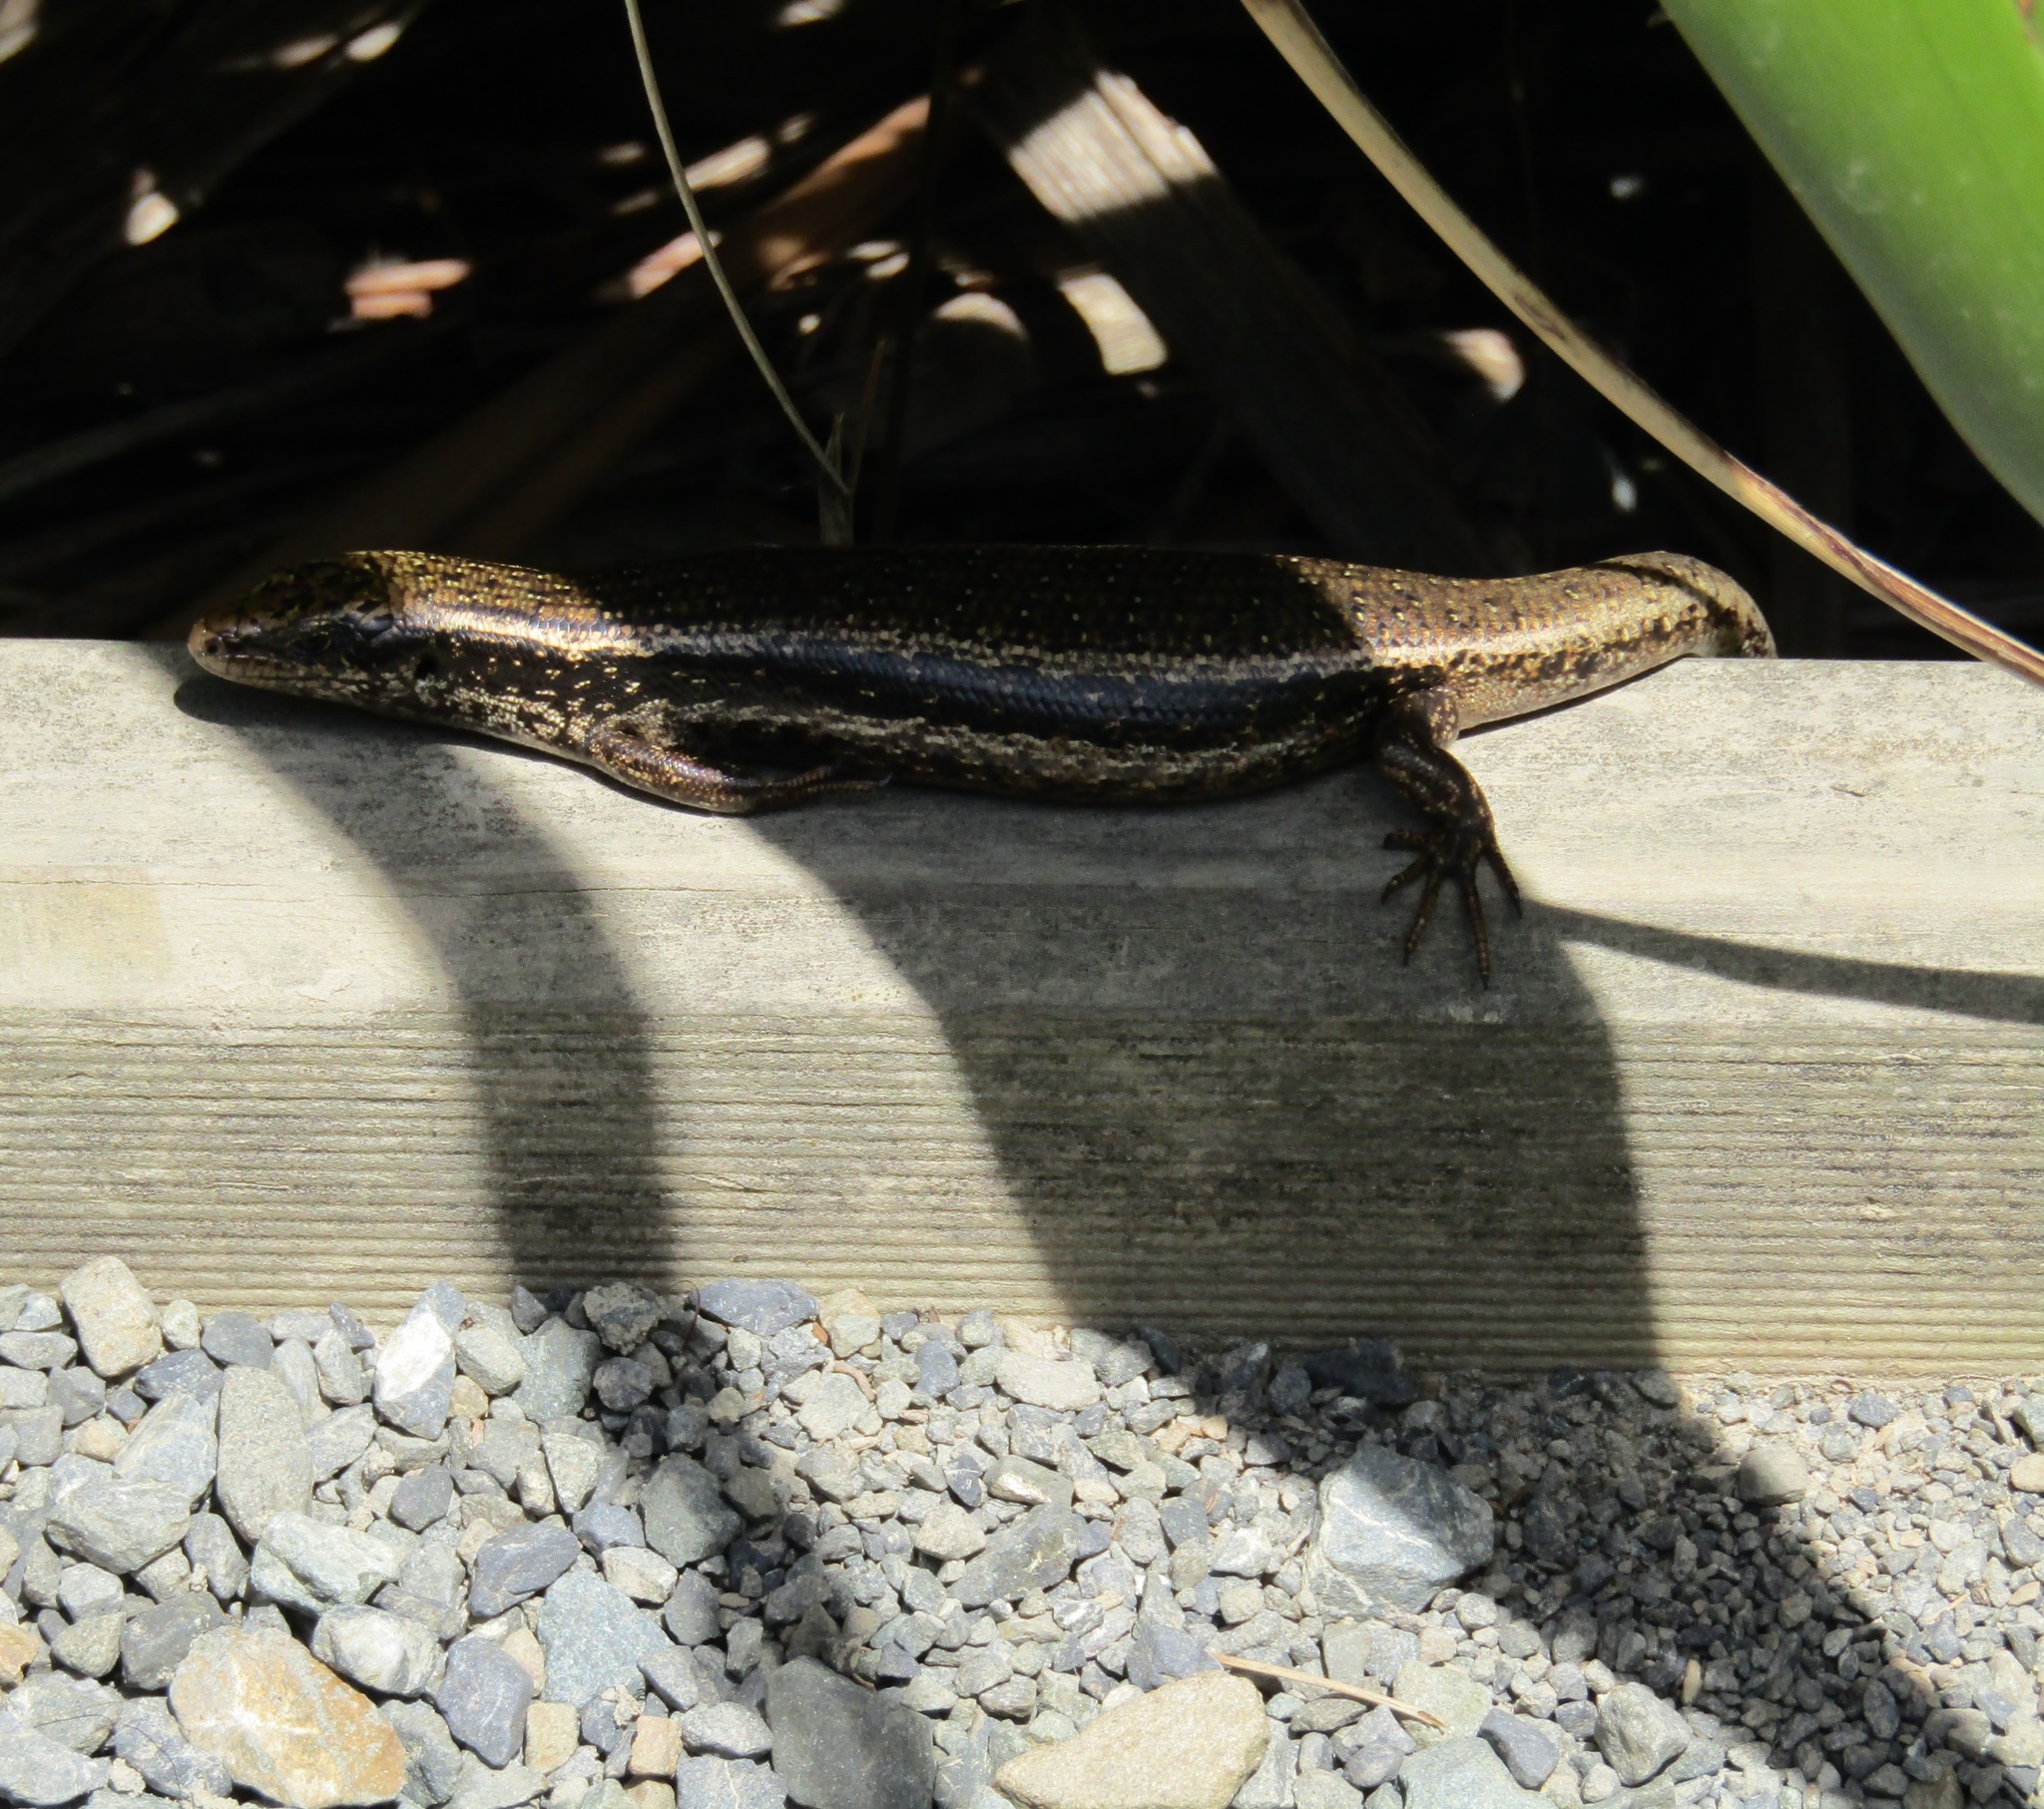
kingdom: Animalia
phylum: Chordata
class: Squamata
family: Scincidae
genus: Oligosoma
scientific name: Oligosoma kokowai
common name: Northern spotted skink
